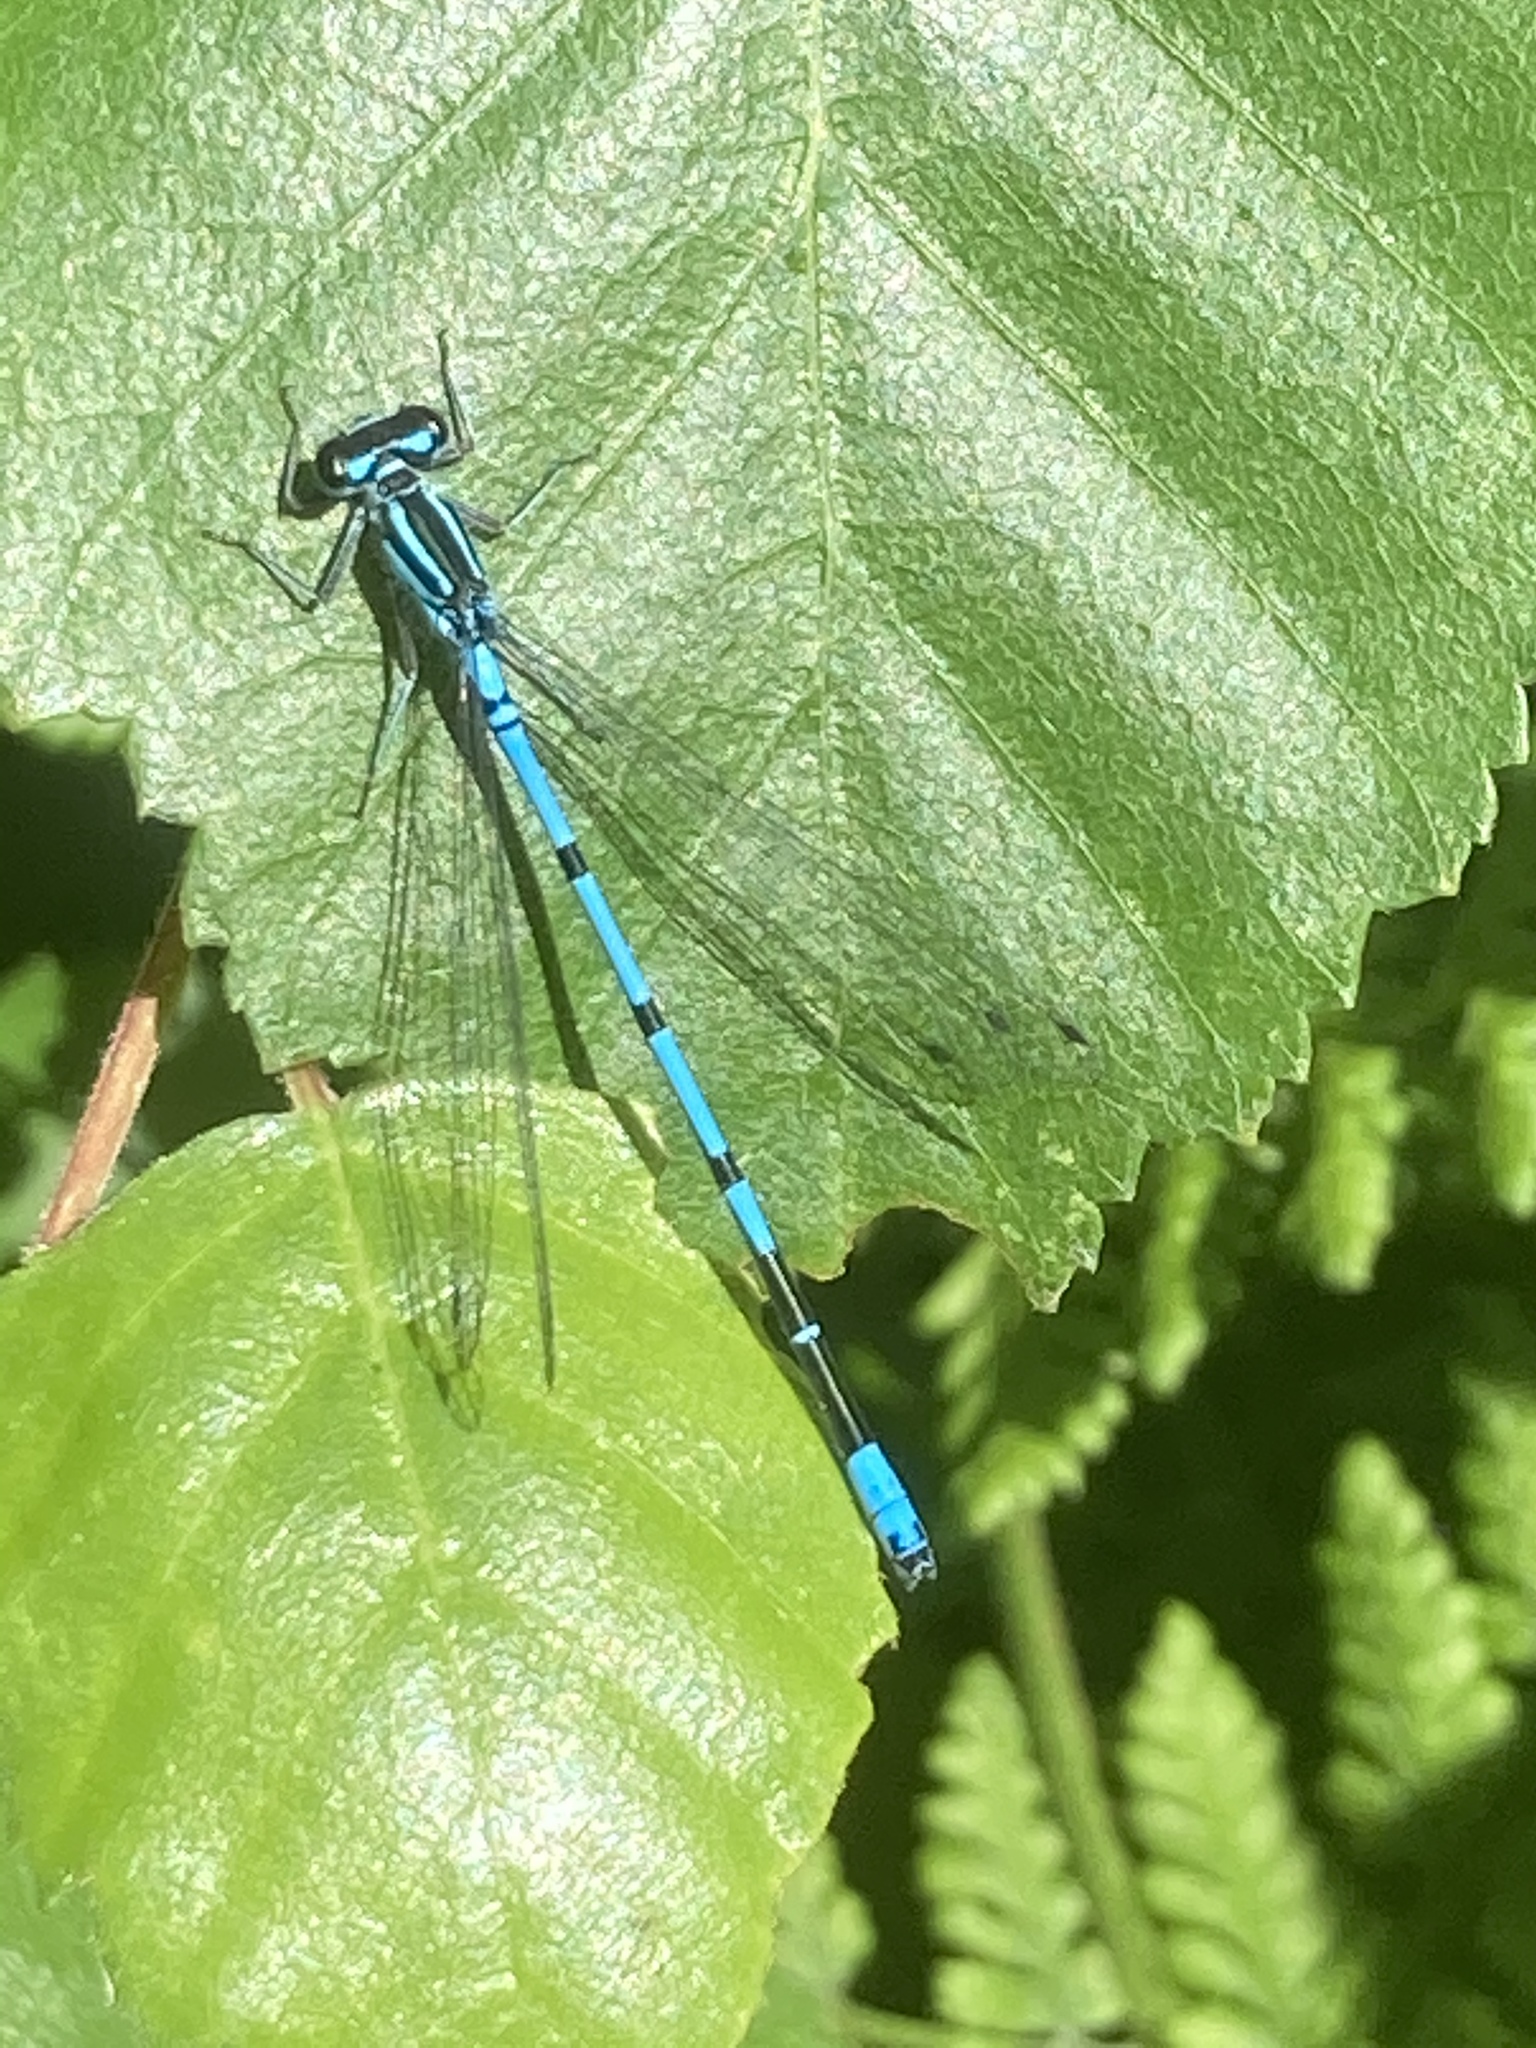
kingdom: Animalia
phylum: Arthropoda
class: Insecta
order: Odonata
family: Coenagrionidae
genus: Coenagrion
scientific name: Coenagrion puella
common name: Azure damselfly
